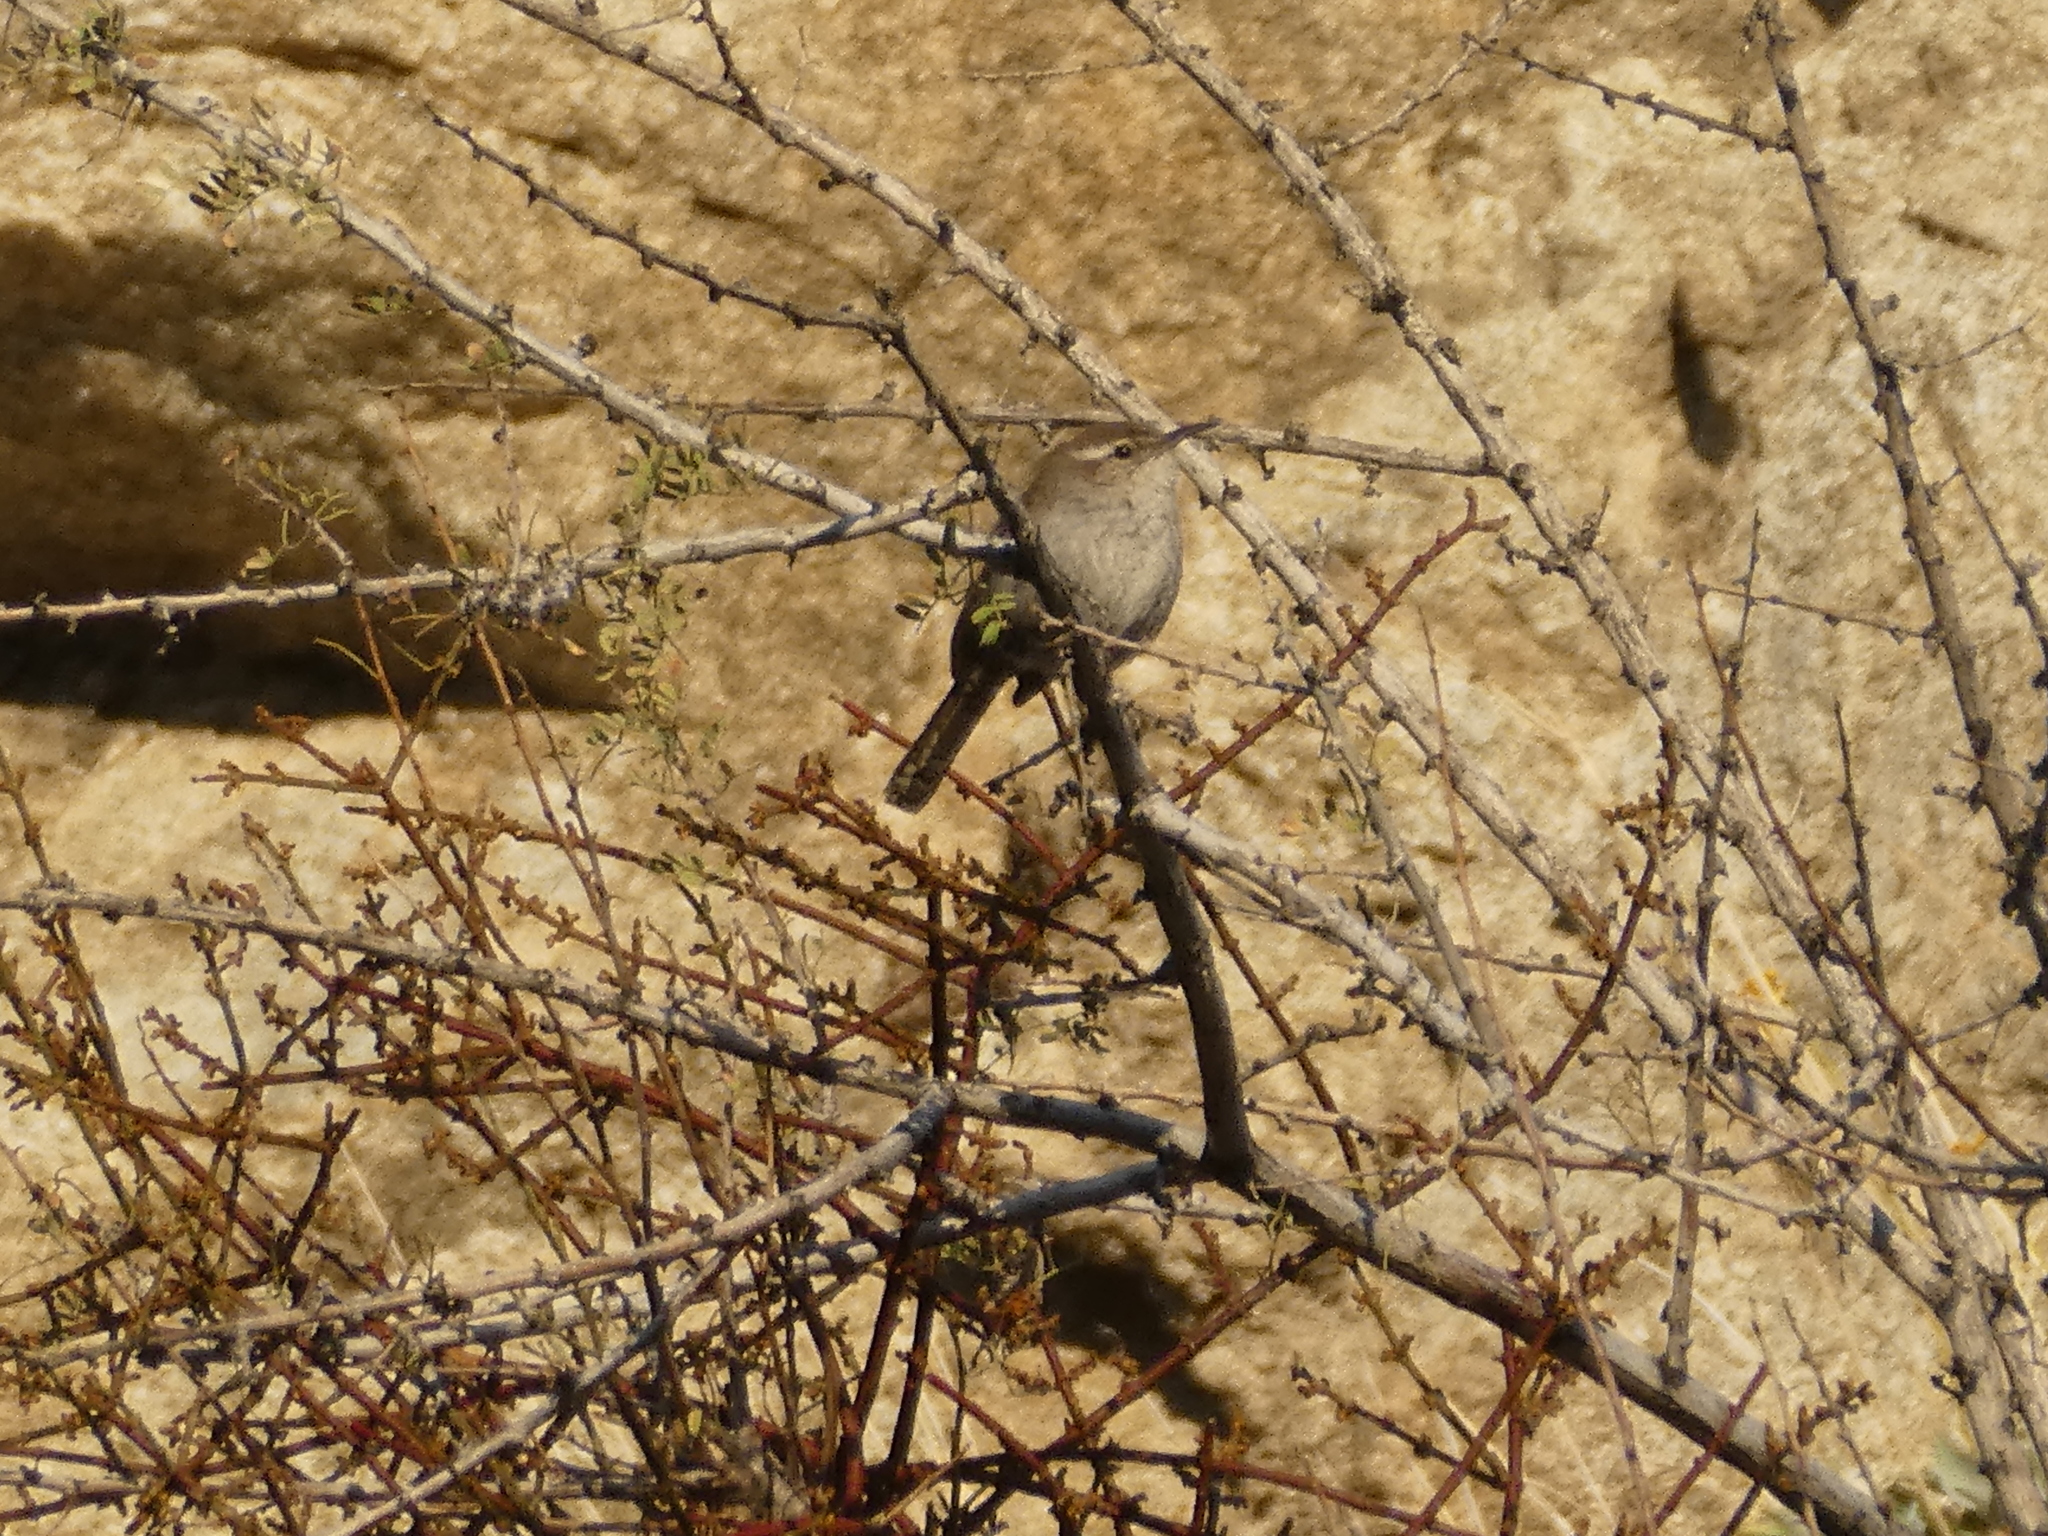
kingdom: Animalia
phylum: Chordata
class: Aves
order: Passeriformes
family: Troglodytidae
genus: Thryomanes
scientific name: Thryomanes bewickii
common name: Bewick's wren
